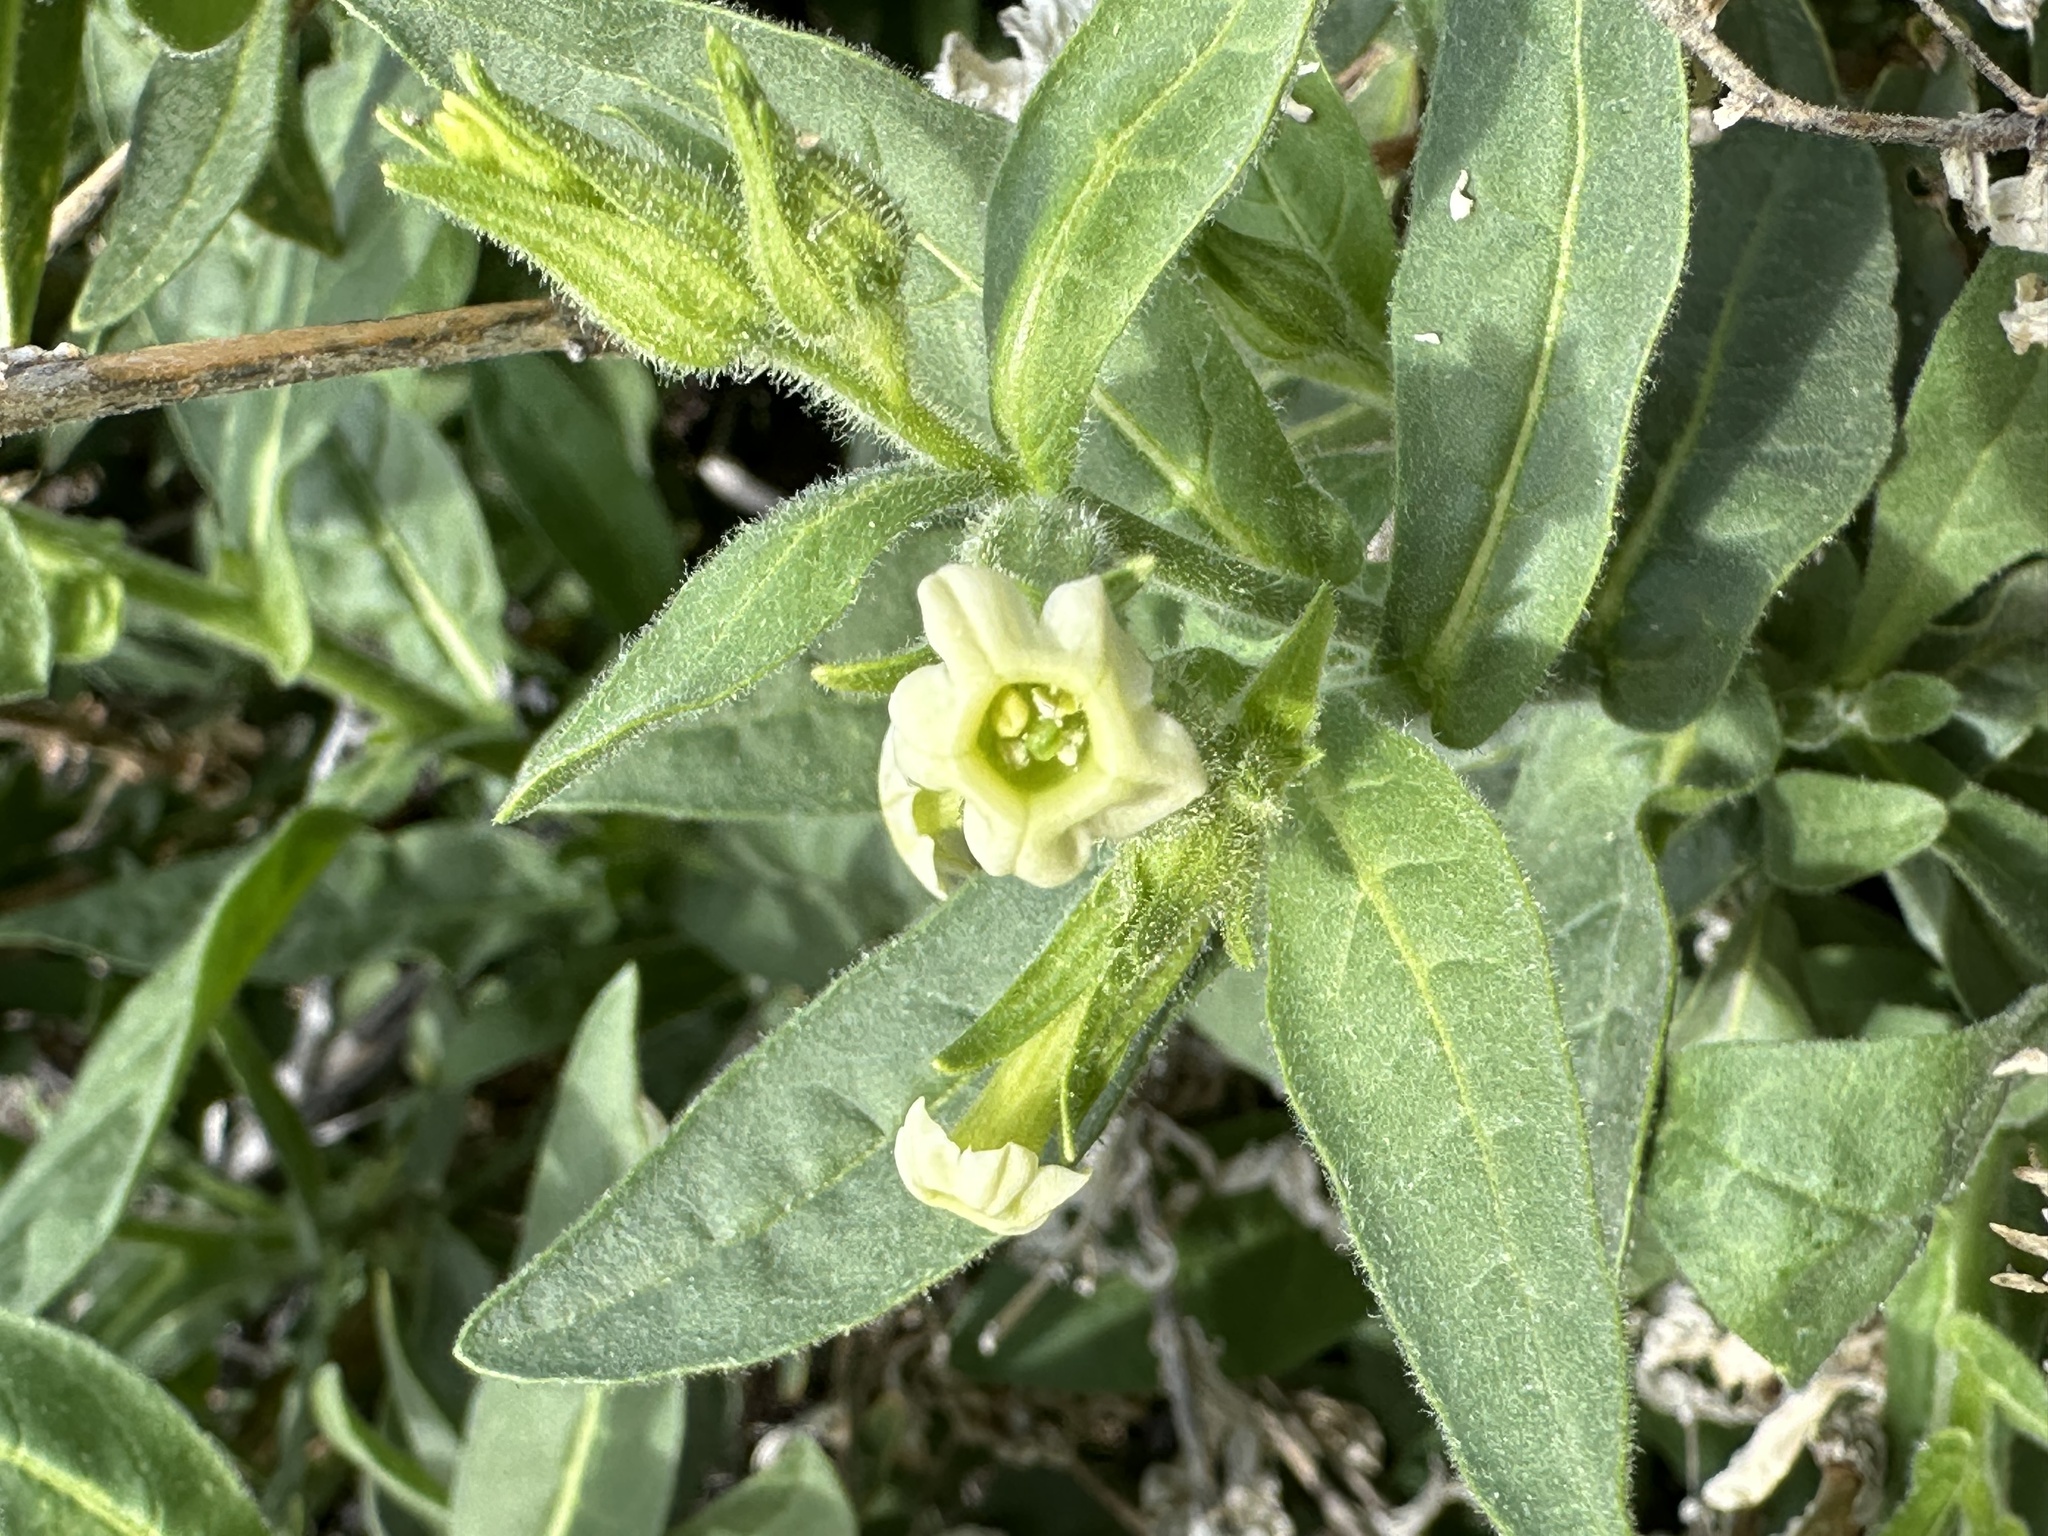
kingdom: Plantae
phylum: Tracheophyta
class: Magnoliopsida
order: Solanales
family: Solanaceae
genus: Nicotiana
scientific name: Nicotiana obtusifolia
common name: Desert tobacco
